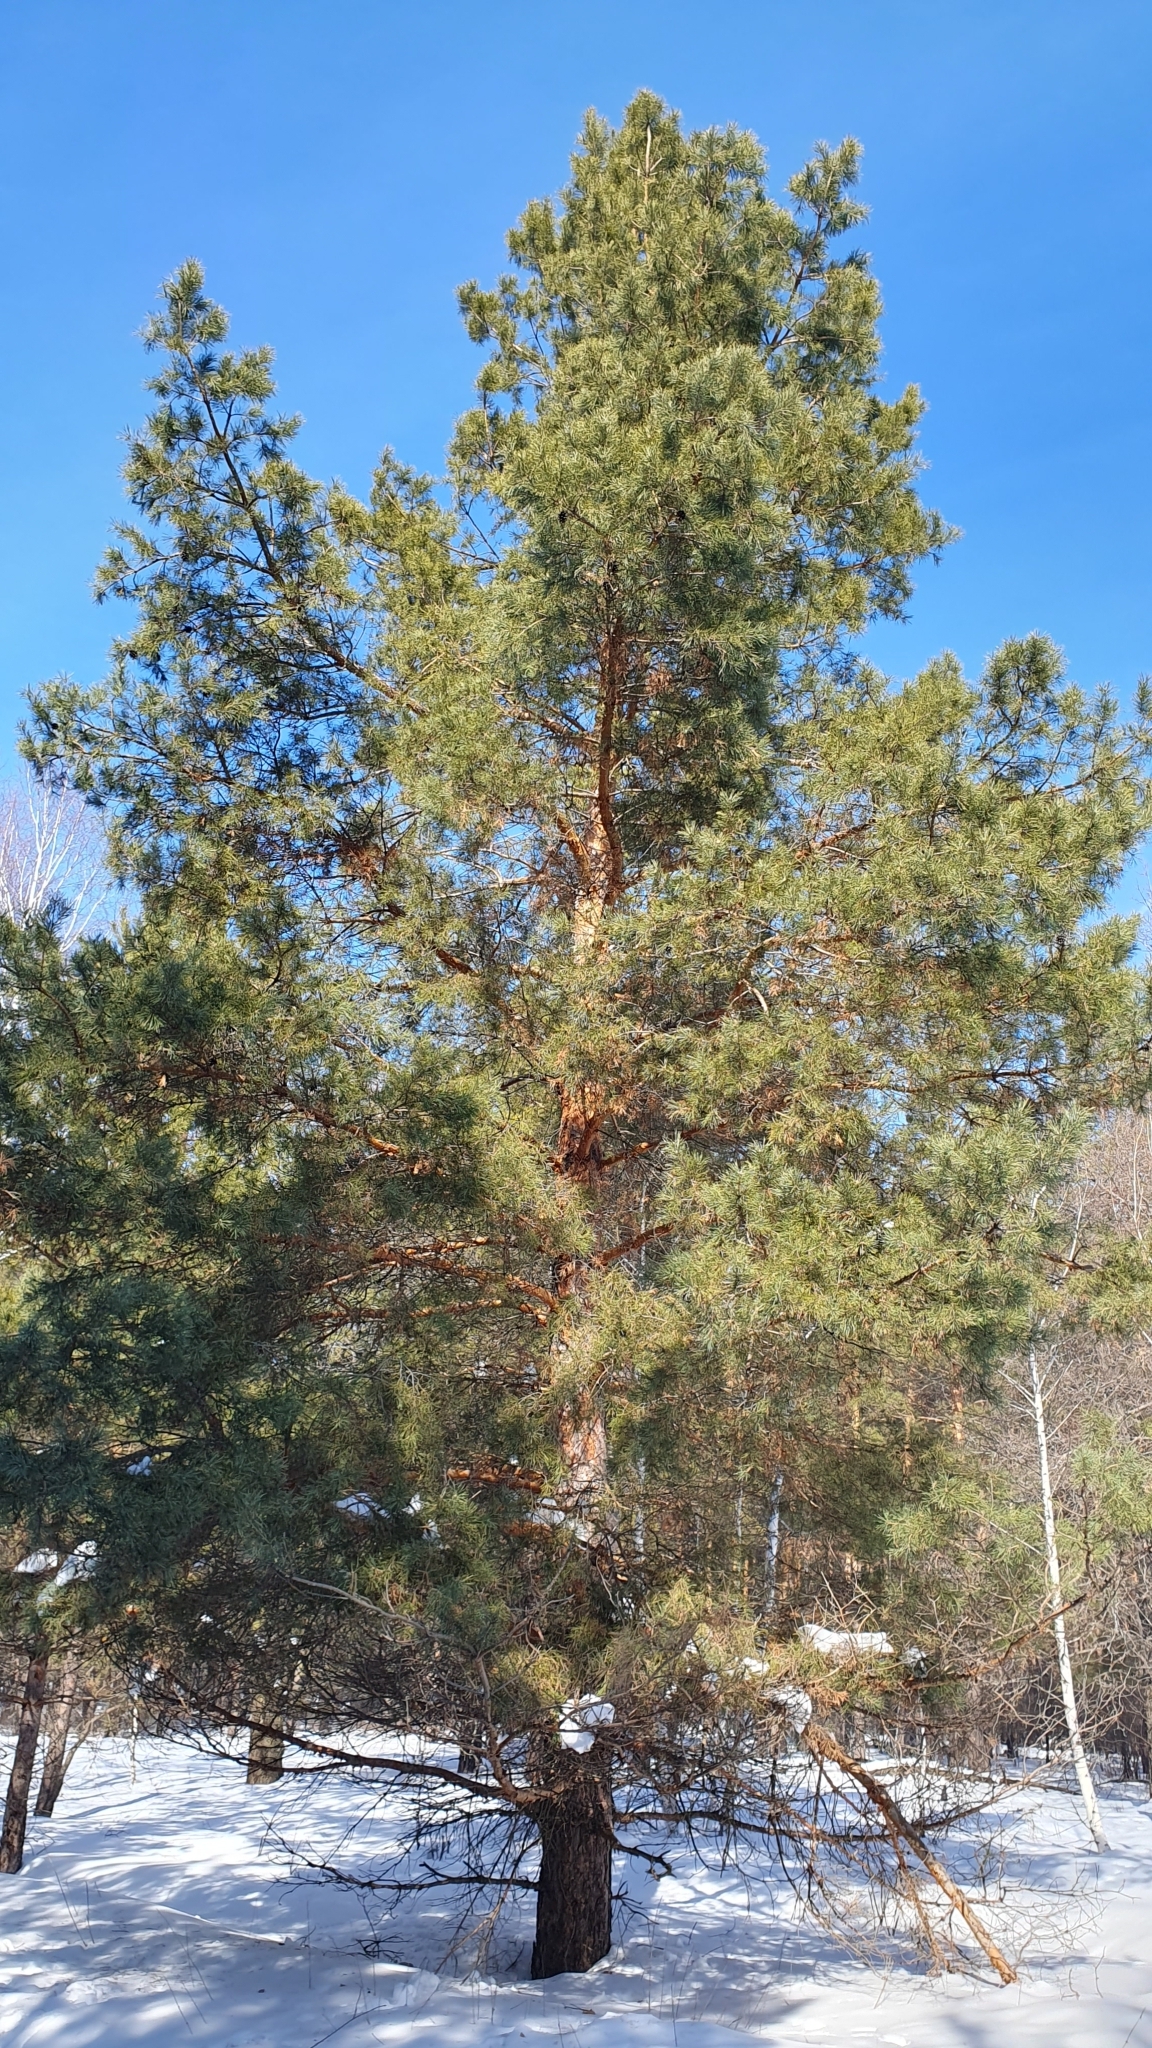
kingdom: Plantae
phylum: Tracheophyta
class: Pinopsida
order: Pinales
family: Pinaceae
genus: Pinus
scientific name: Pinus sylvestris
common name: Scots pine
